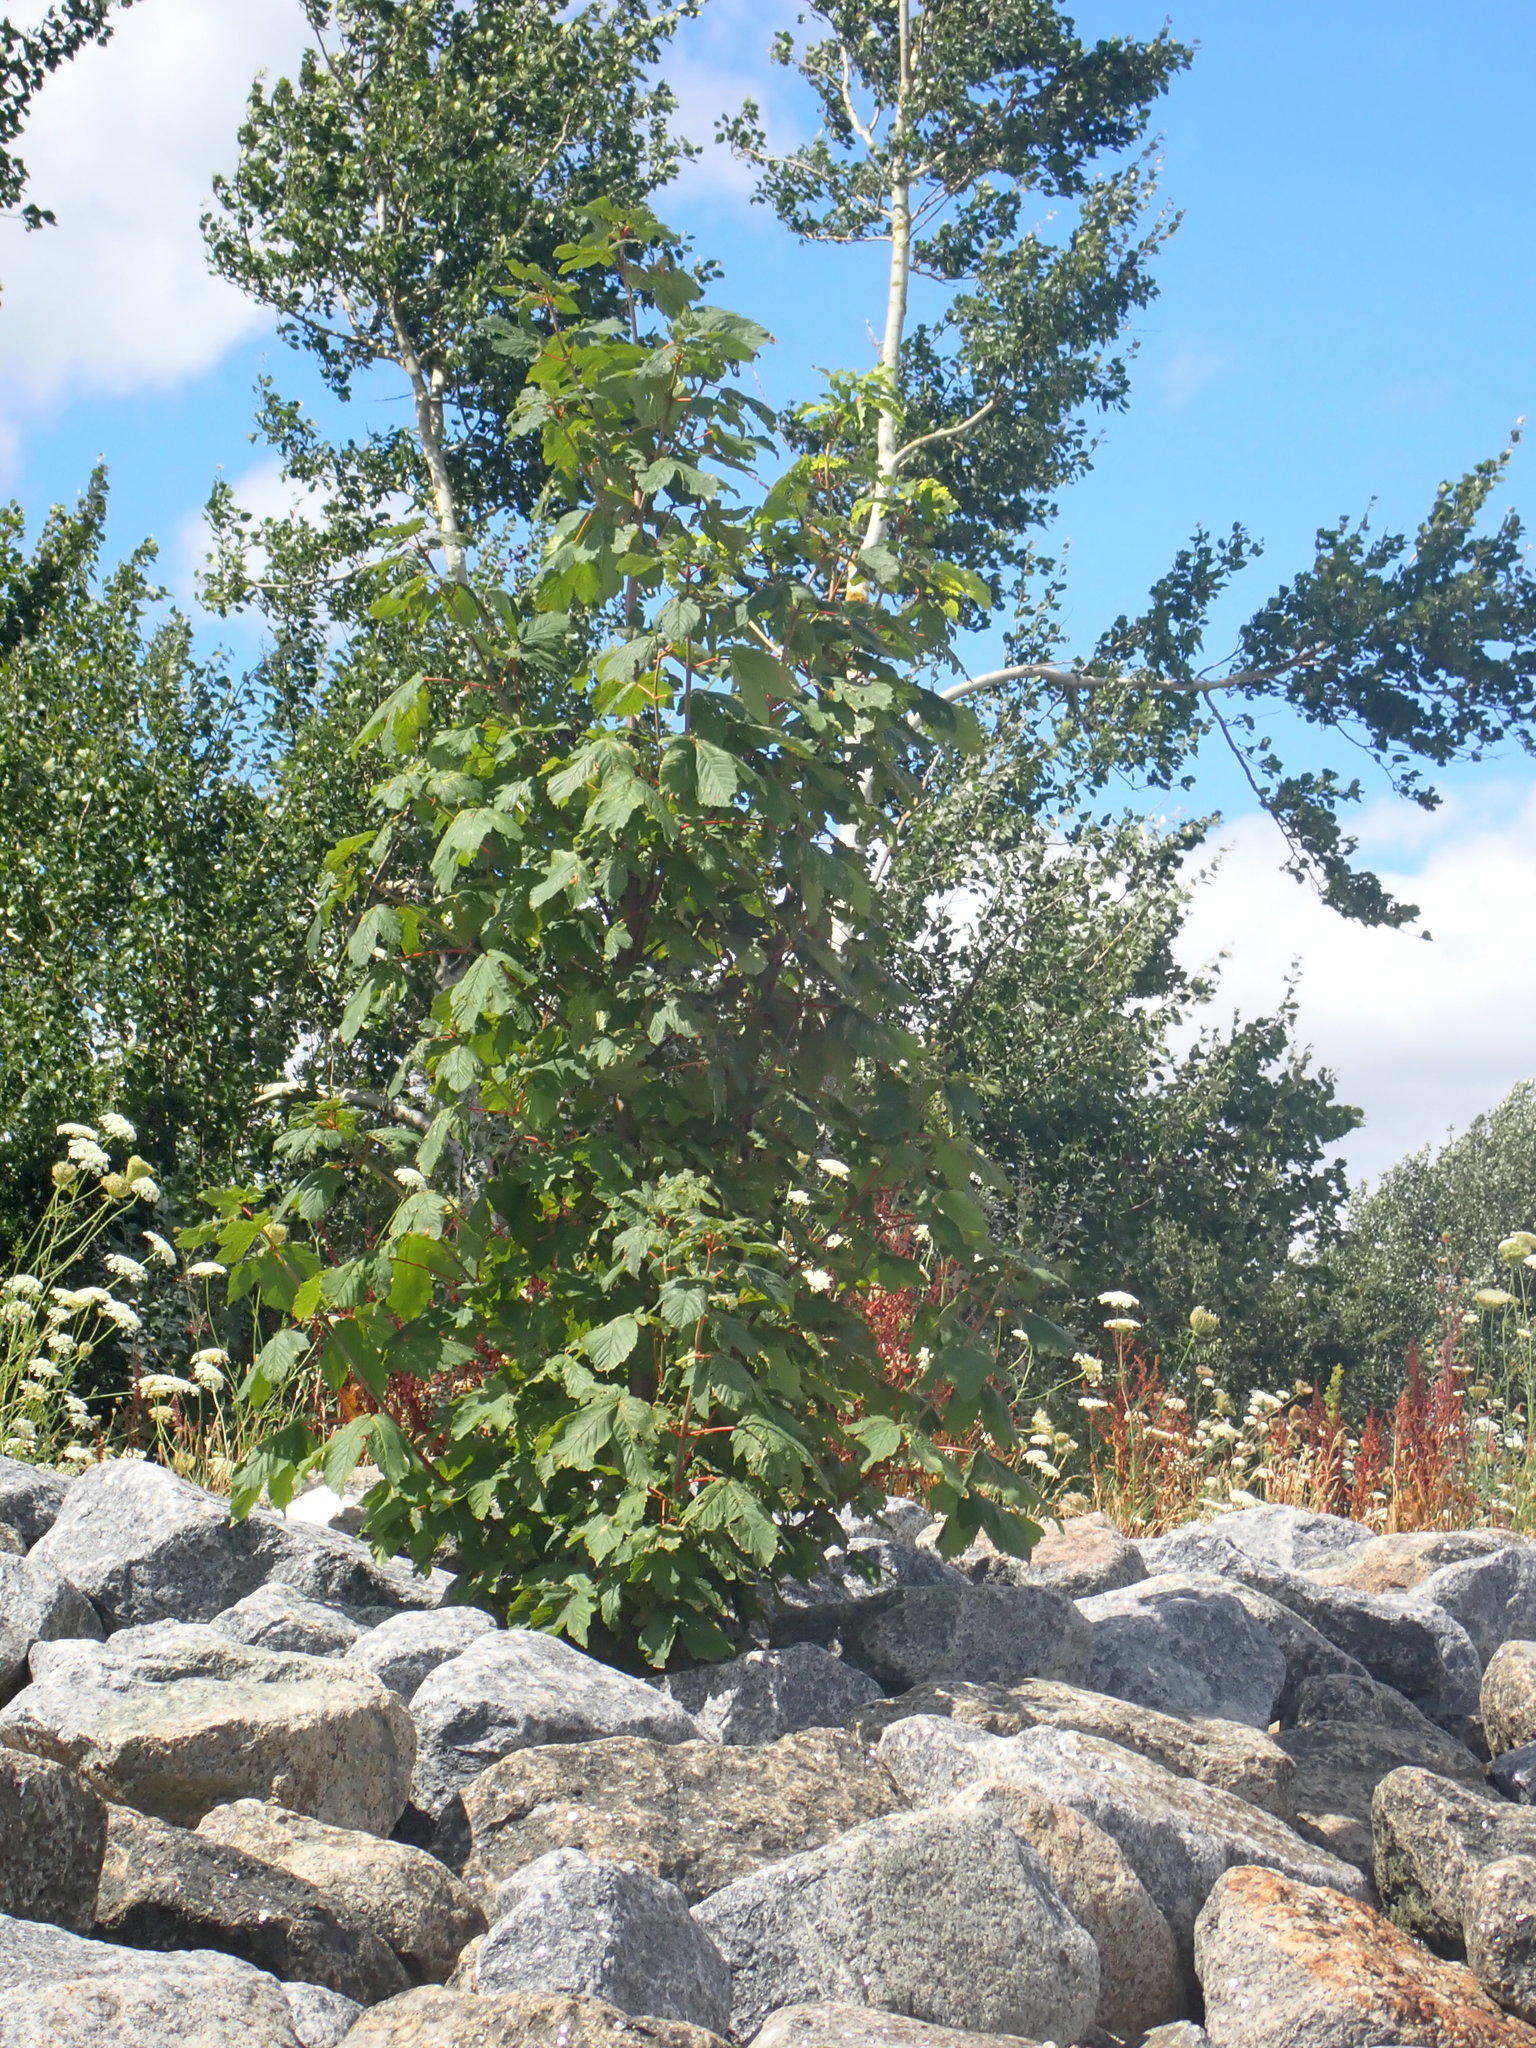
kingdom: Plantae
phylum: Tracheophyta
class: Magnoliopsida
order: Sapindales
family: Sapindaceae
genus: Acer
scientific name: Acer pseudoplatanus
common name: Sycamore
